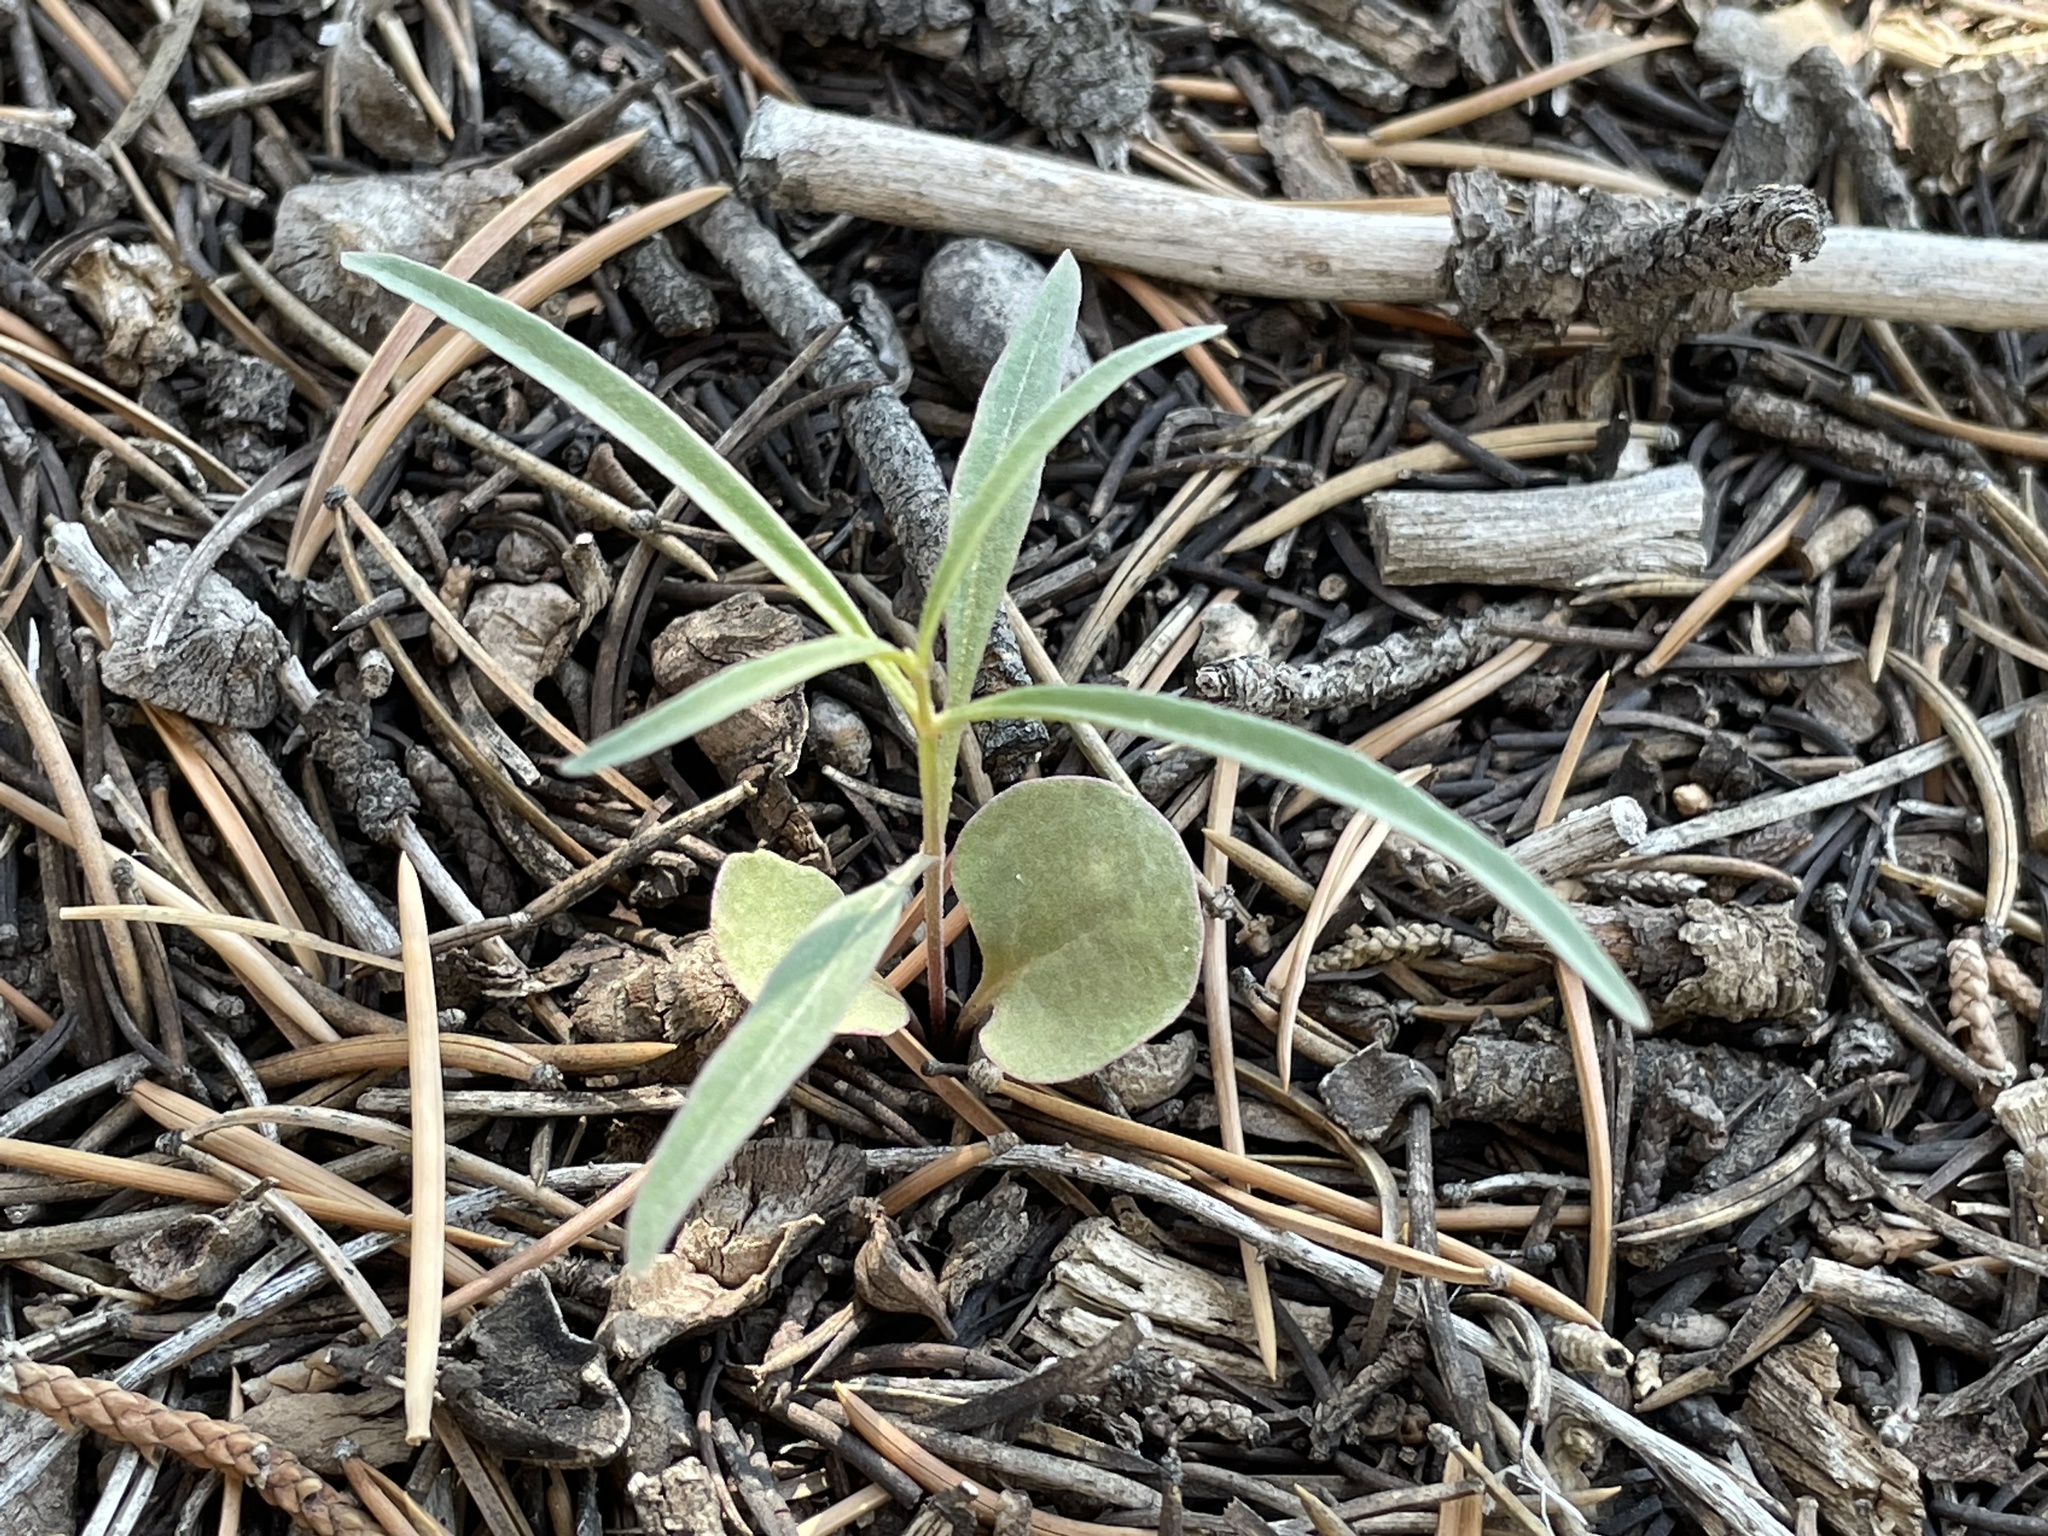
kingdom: Plantae
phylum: Tracheophyta
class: Magnoliopsida
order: Caryophyllales
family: Nyctaginaceae
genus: Mirabilis
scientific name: Mirabilis linearis
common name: Linear-leaved four-o'clock
